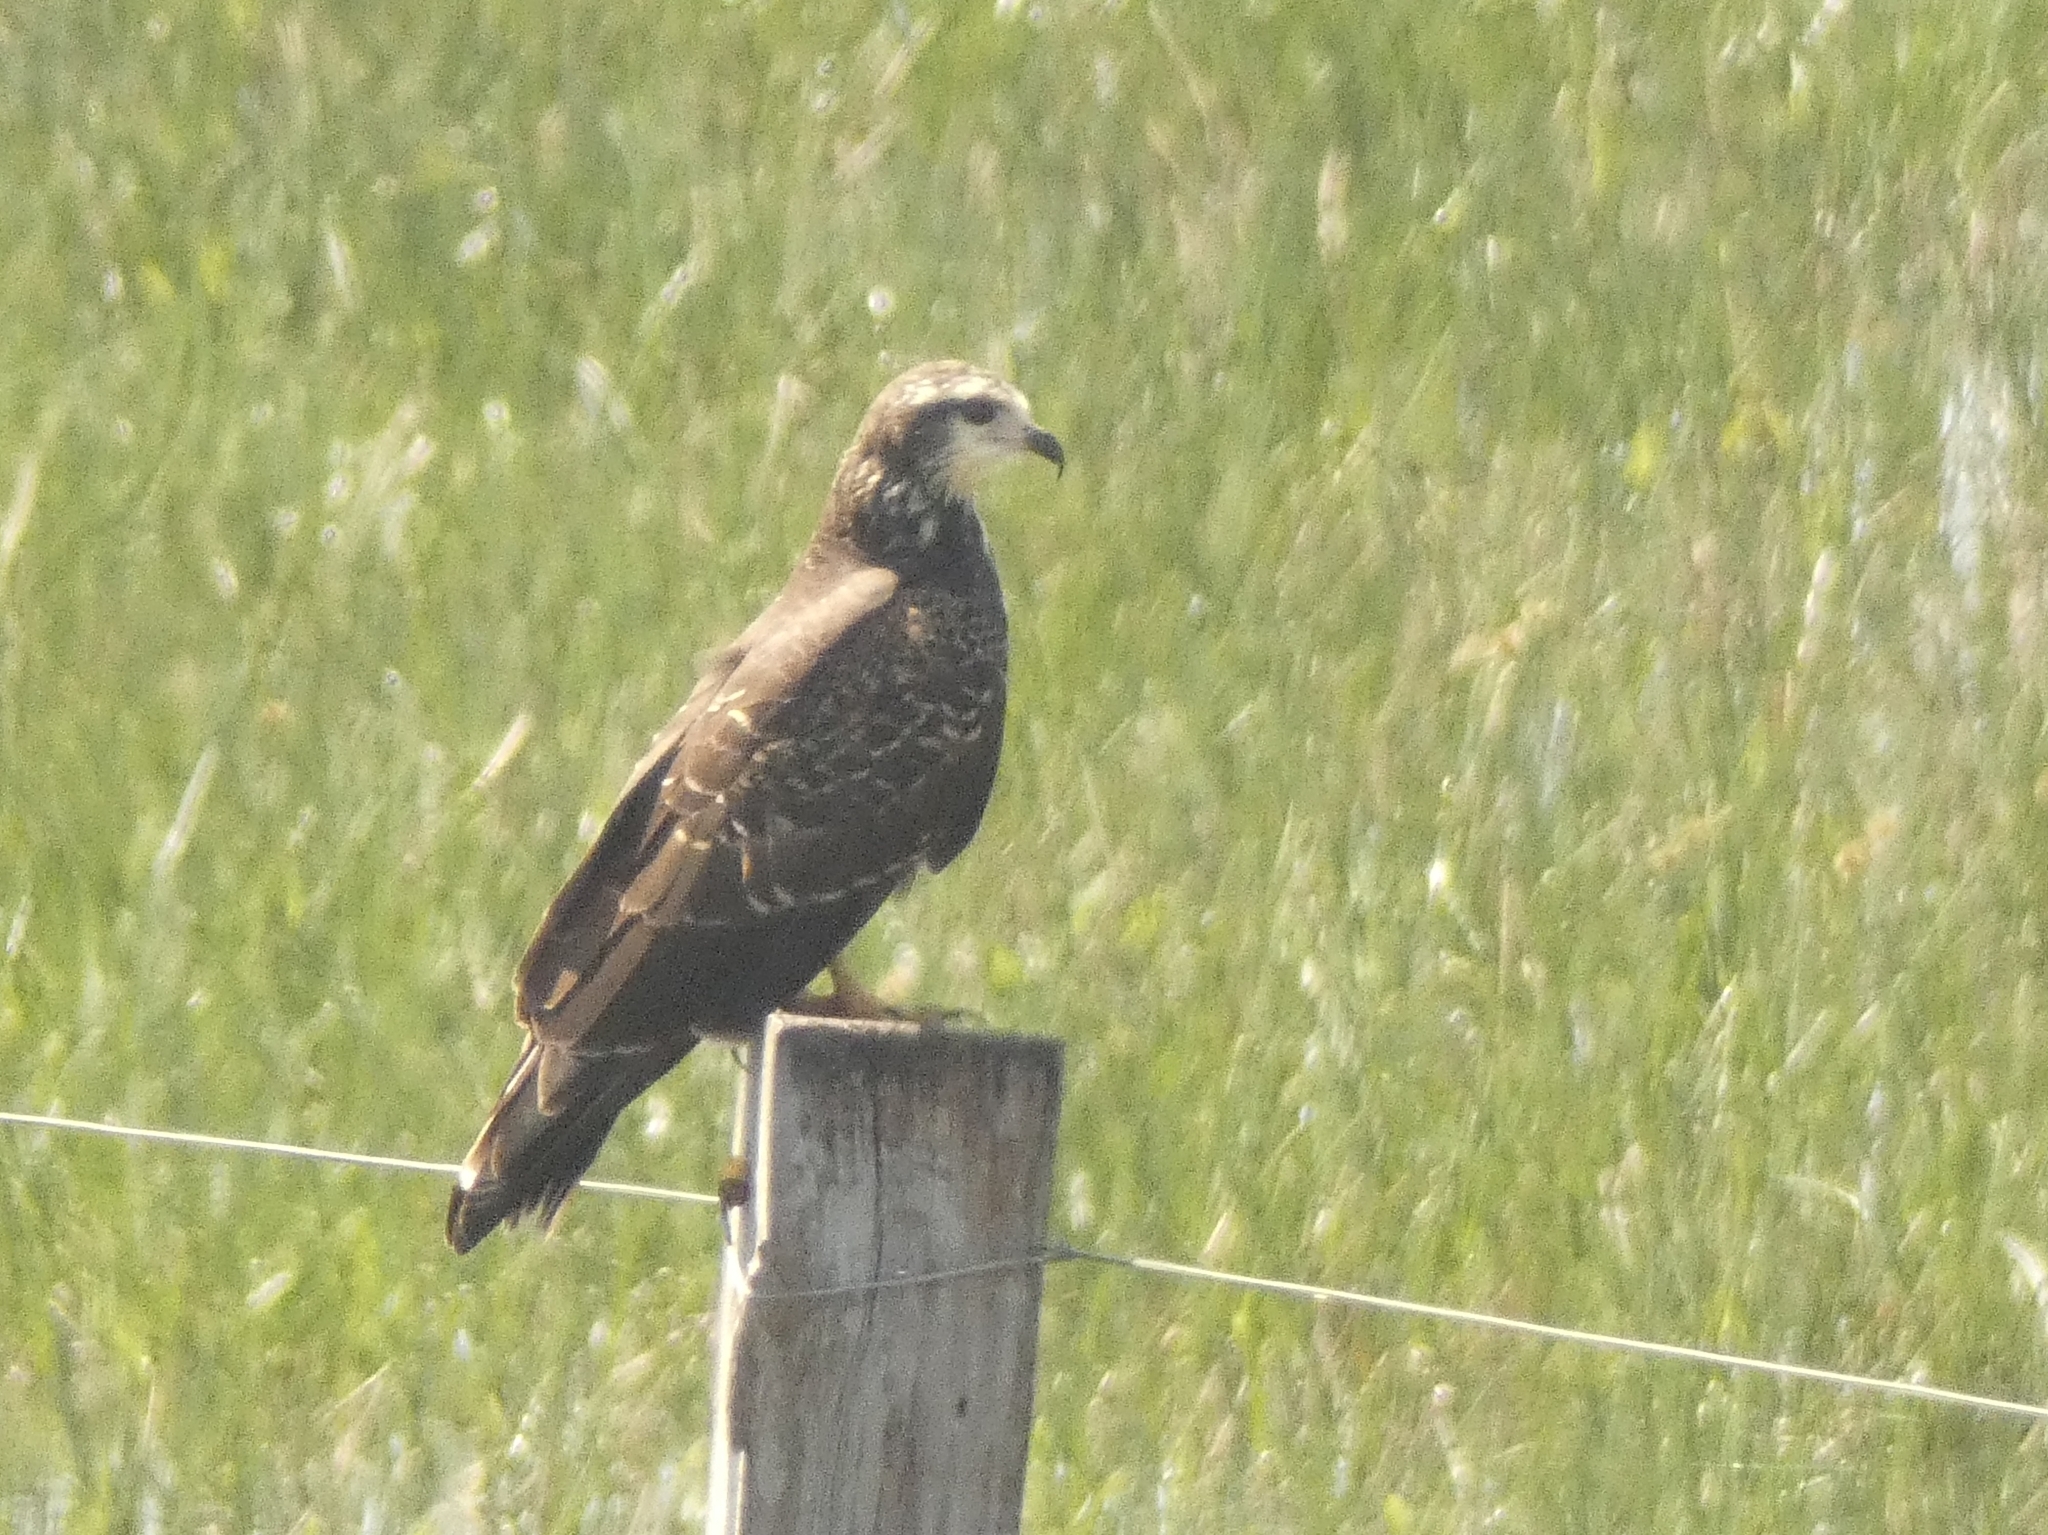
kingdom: Animalia
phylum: Chordata
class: Aves
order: Accipitriformes
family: Accipitridae
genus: Rostrhamus
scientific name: Rostrhamus sociabilis
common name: Snail kite
